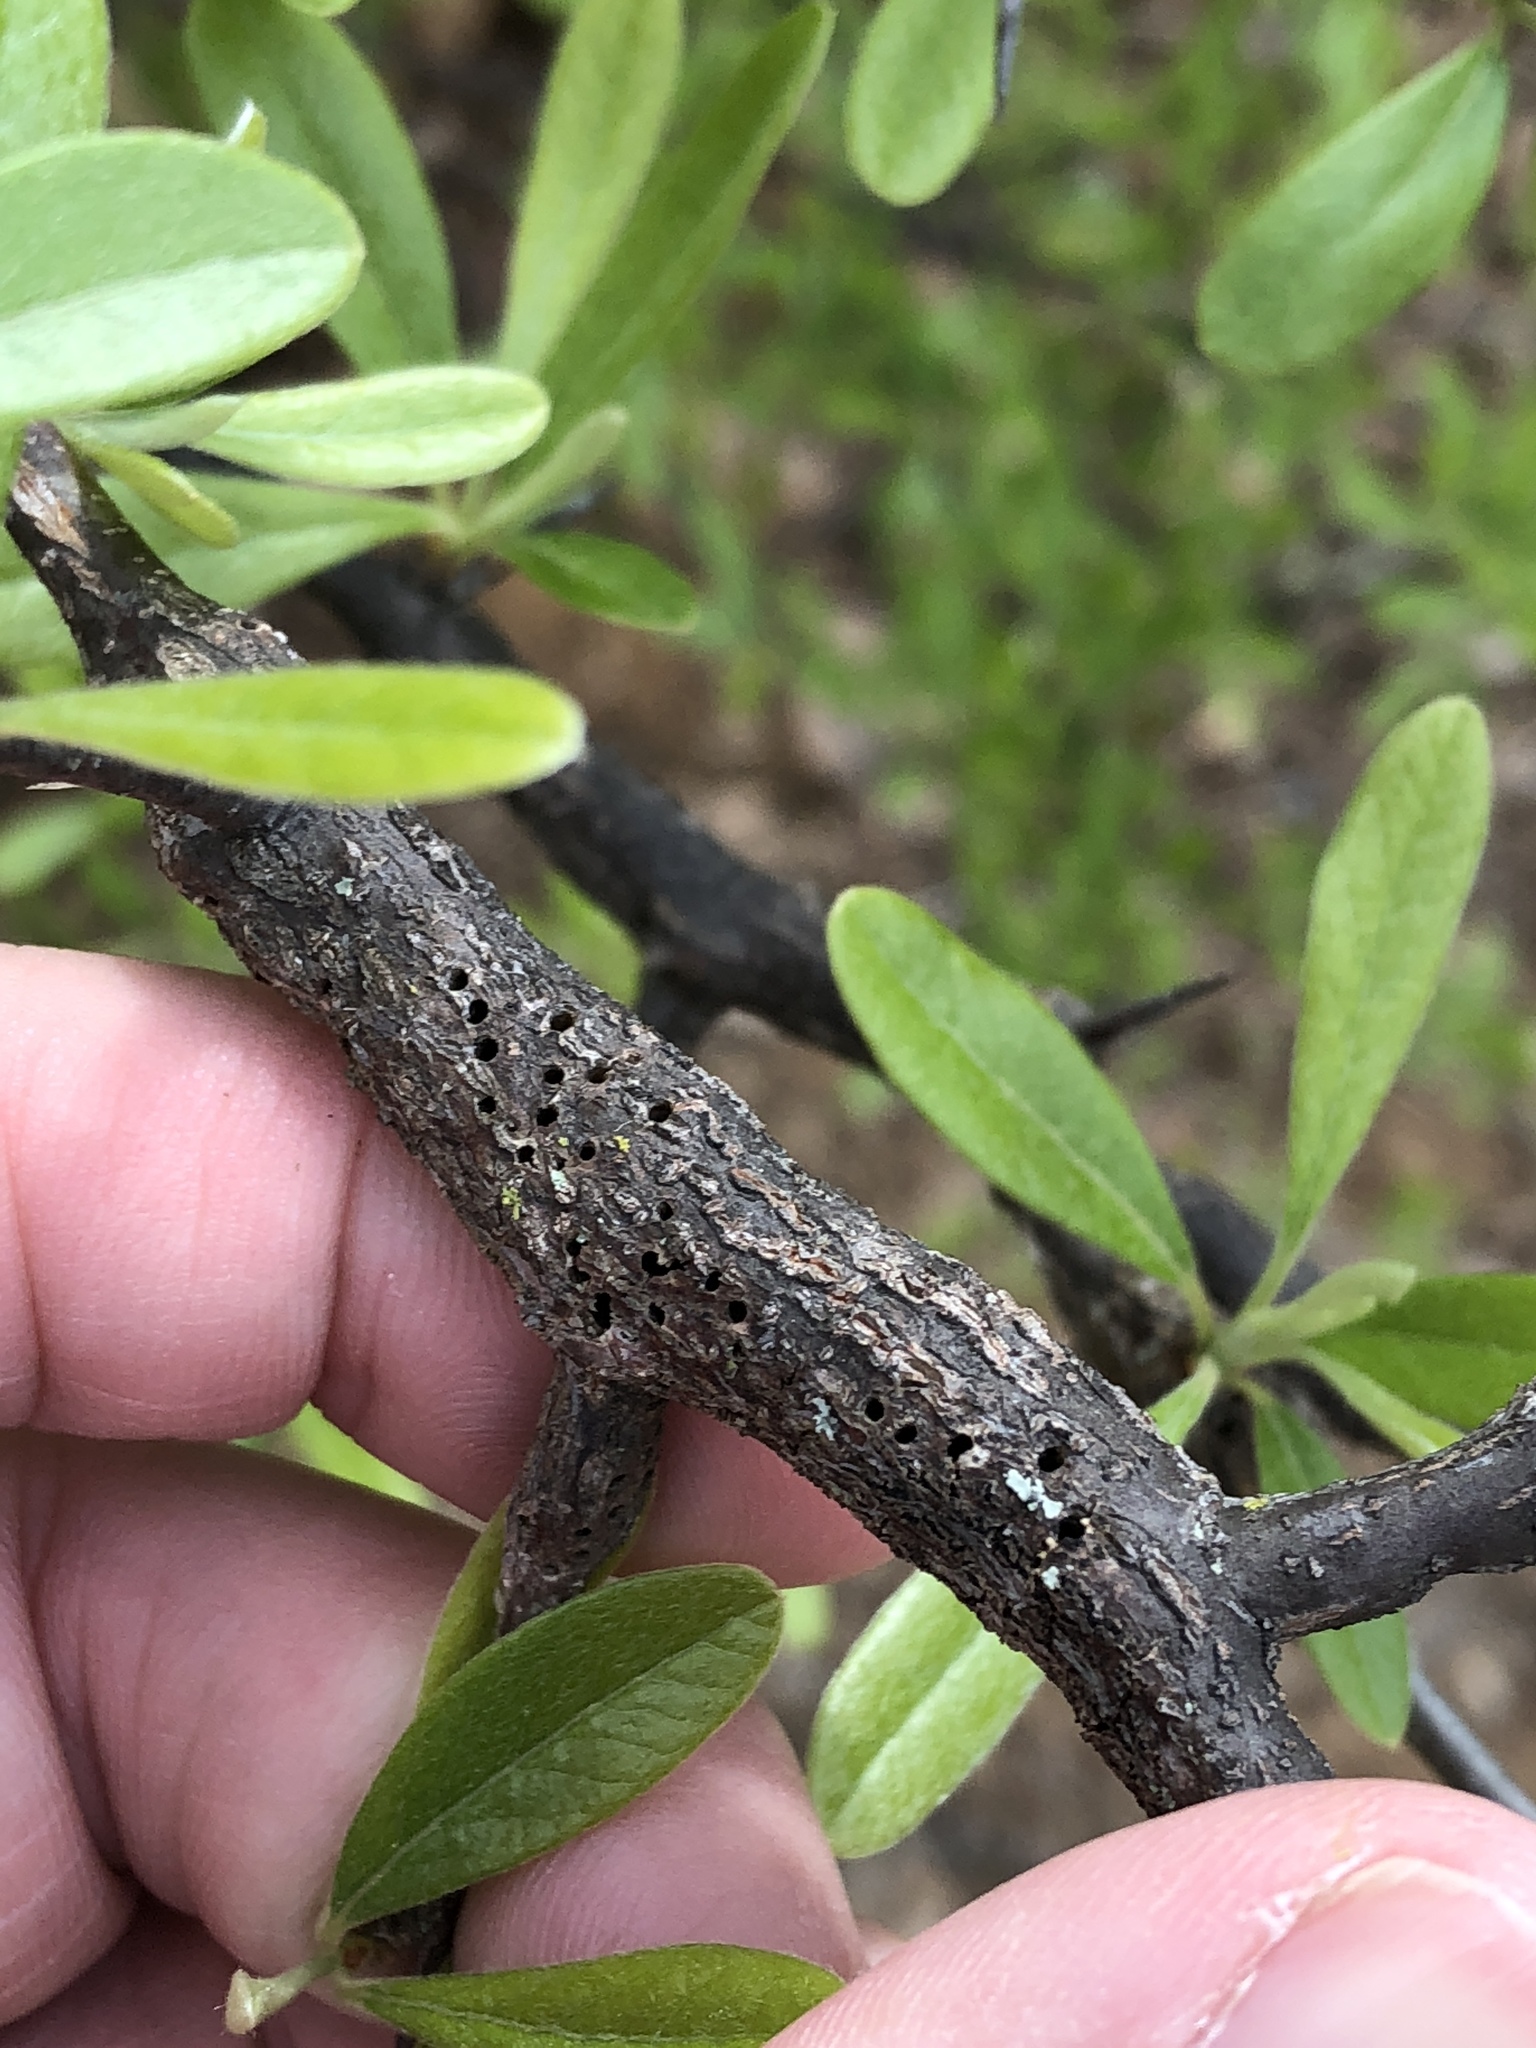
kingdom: Animalia
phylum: Arthropoda
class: Insecta
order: Diptera
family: Cecidomyiidae
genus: Bruggmanniella
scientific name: Bruggmanniella bumeliae
